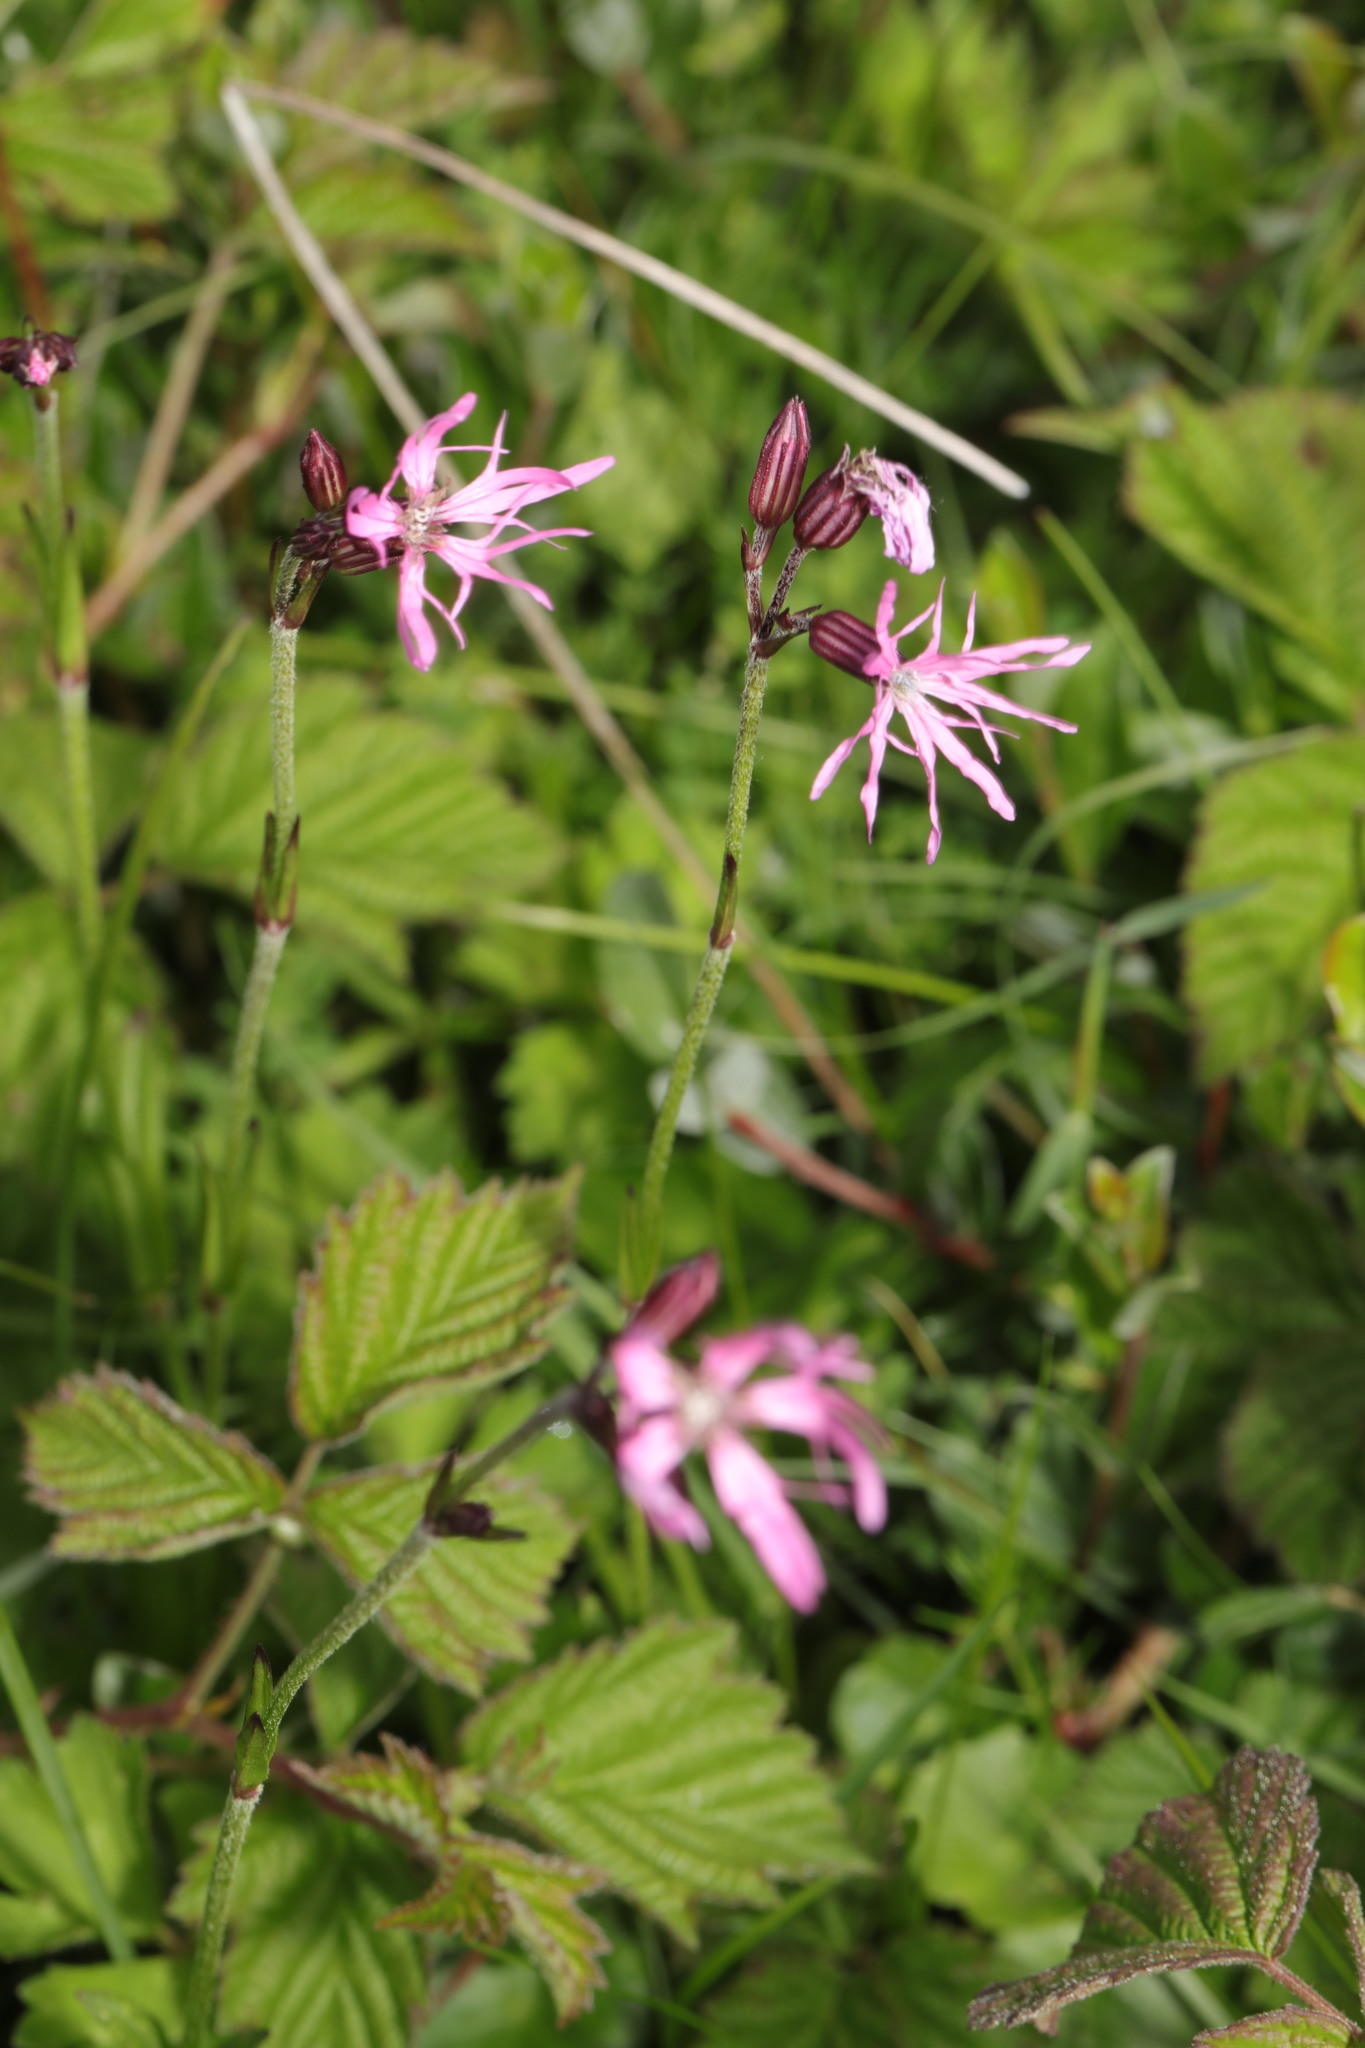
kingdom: Plantae
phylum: Tracheophyta
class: Magnoliopsida
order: Caryophyllales
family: Caryophyllaceae
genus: Silene
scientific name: Silene flos-cuculi
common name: Ragged-robin
